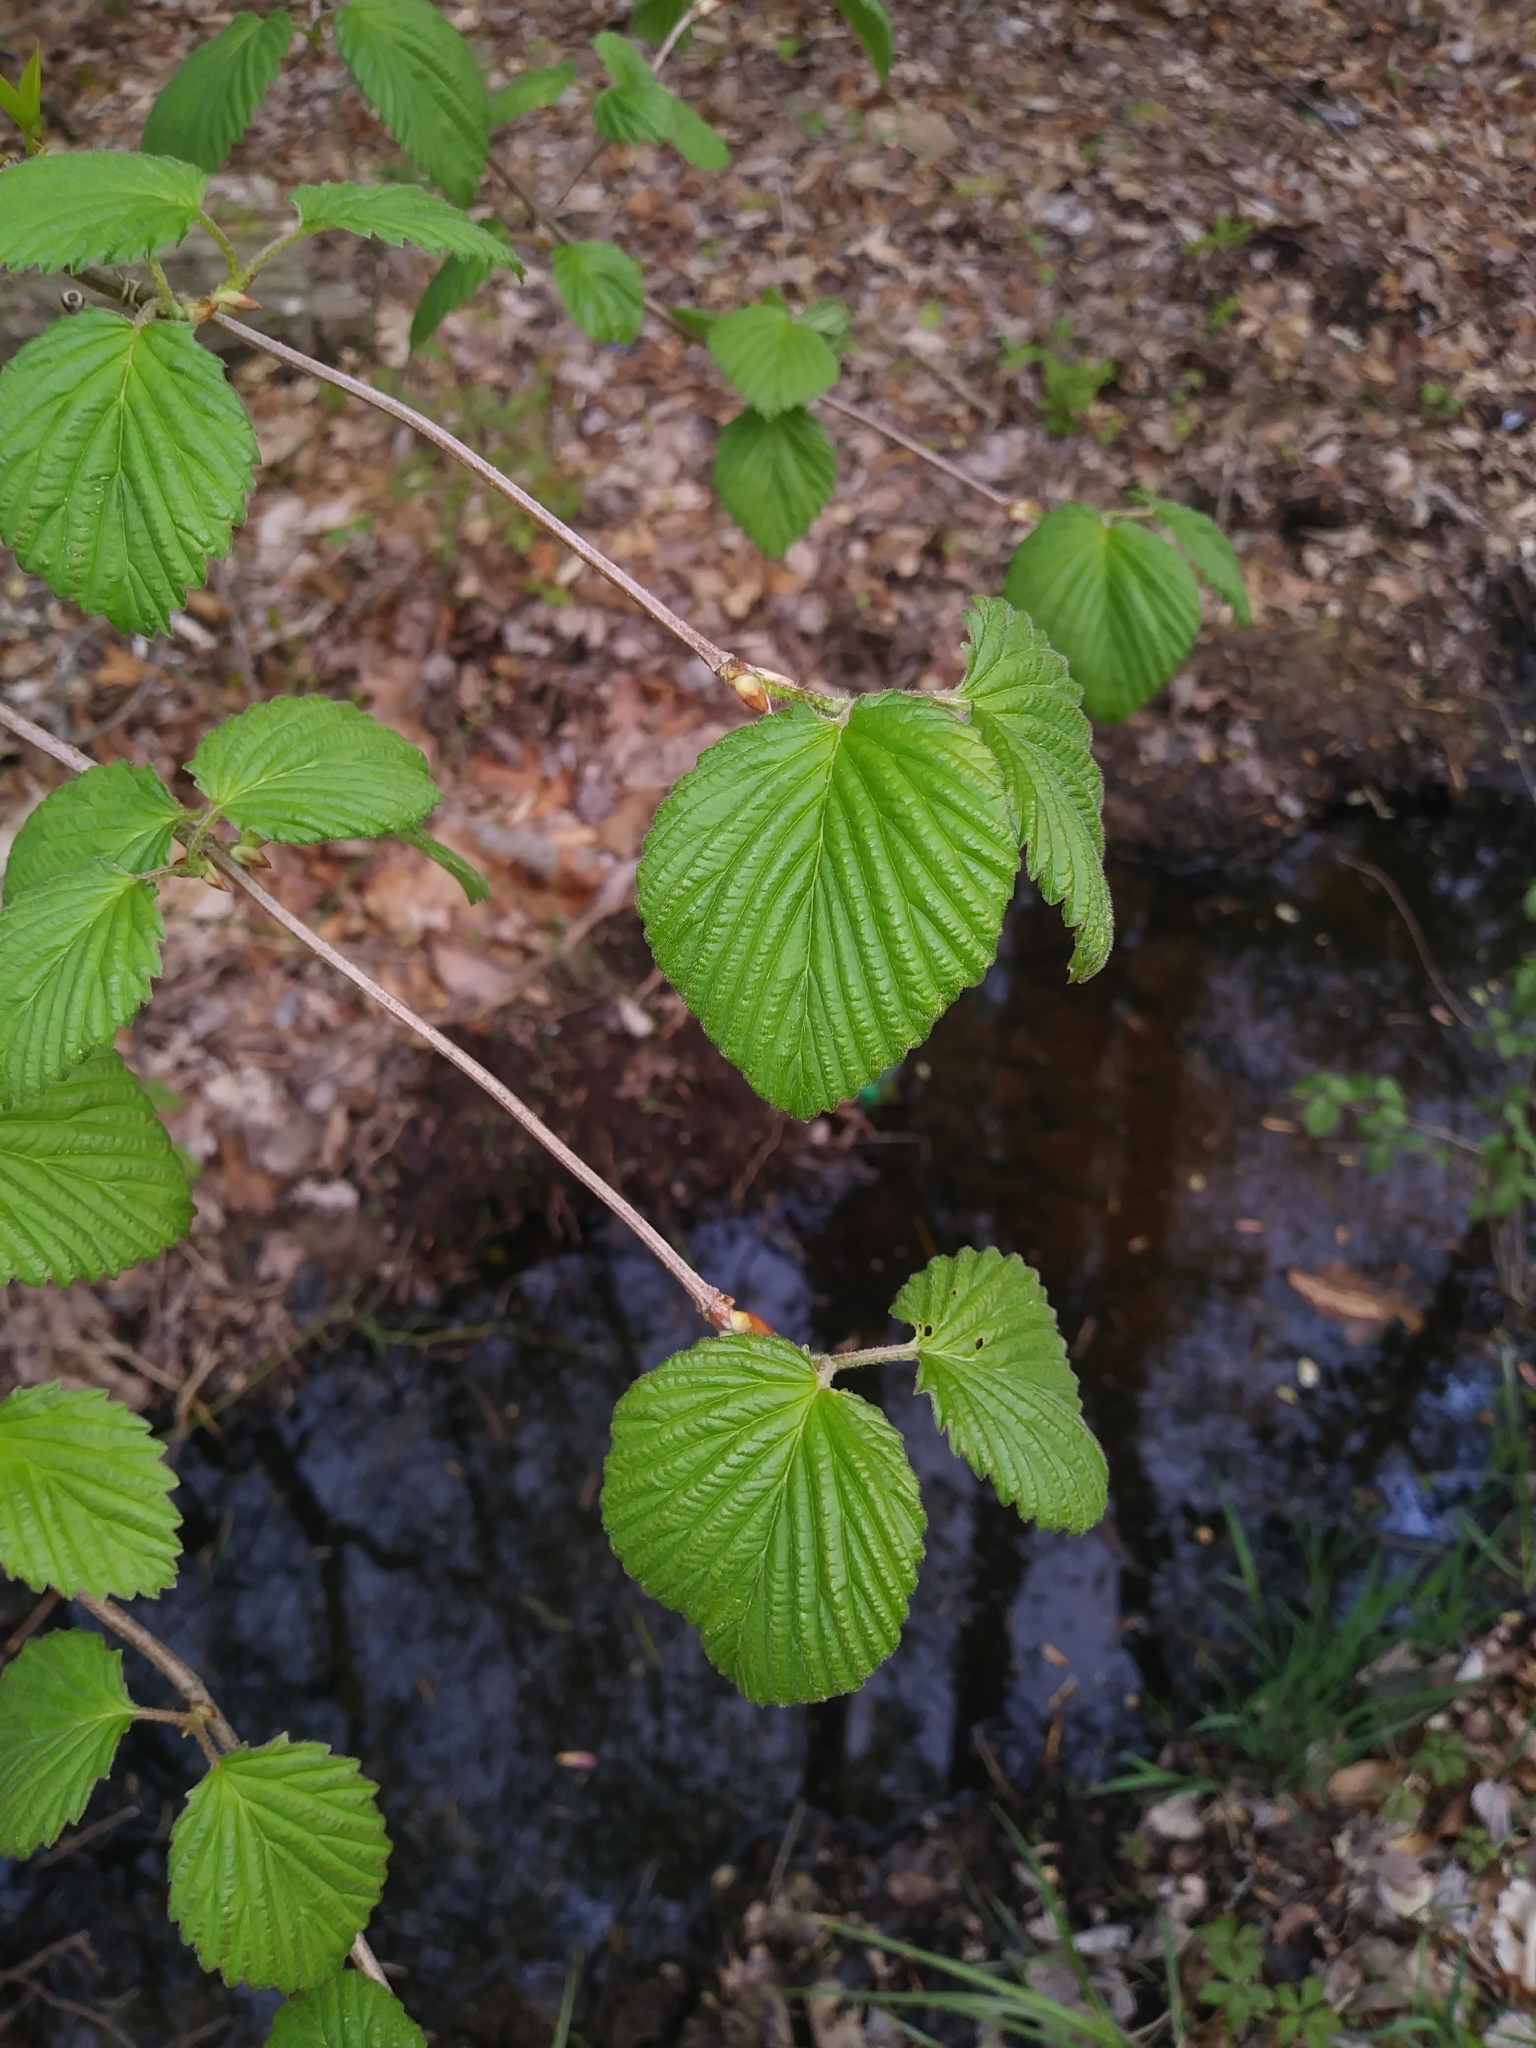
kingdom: Plantae
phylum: Tracheophyta
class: Magnoliopsida
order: Dipsacales
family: Viburnaceae
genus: Viburnum
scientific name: Viburnum dentatum
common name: Arrow-wood
